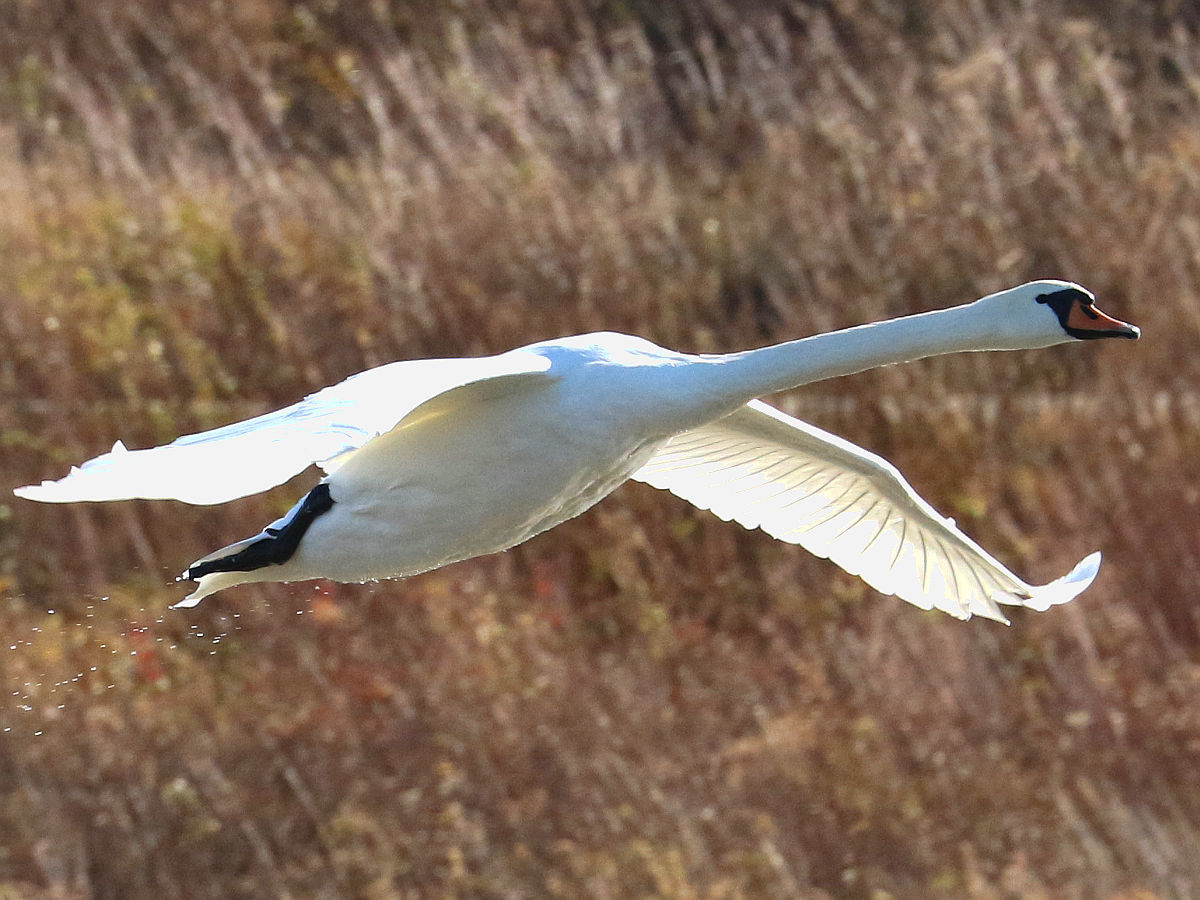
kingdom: Animalia
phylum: Chordata
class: Aves
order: Anseriformes
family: Anatidae
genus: Cygnus
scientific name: Cygnus olor
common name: Mute swan
